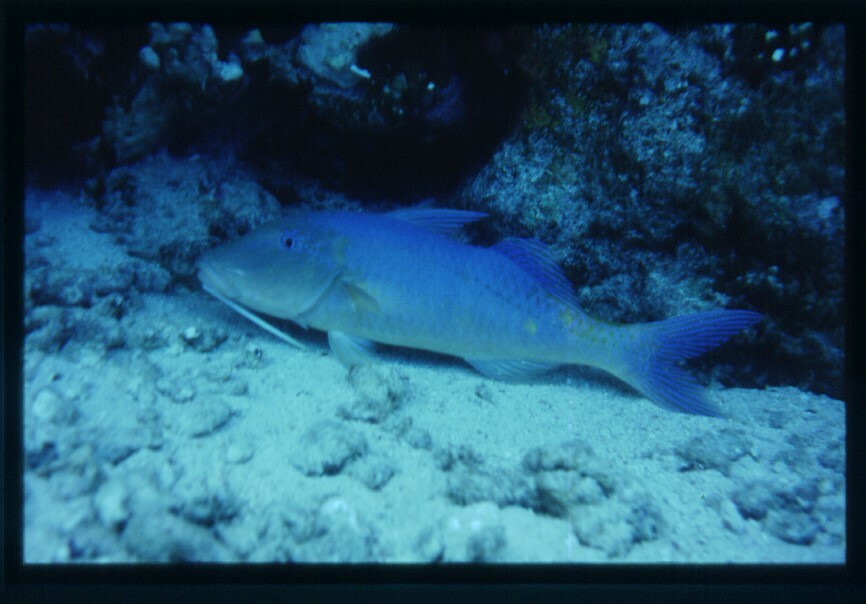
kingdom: Animalia
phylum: Chordata
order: Perciformes
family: Mullidae
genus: Parupeneus
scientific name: Parupeneus cyclostomus
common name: Goldsaddle goatfish
